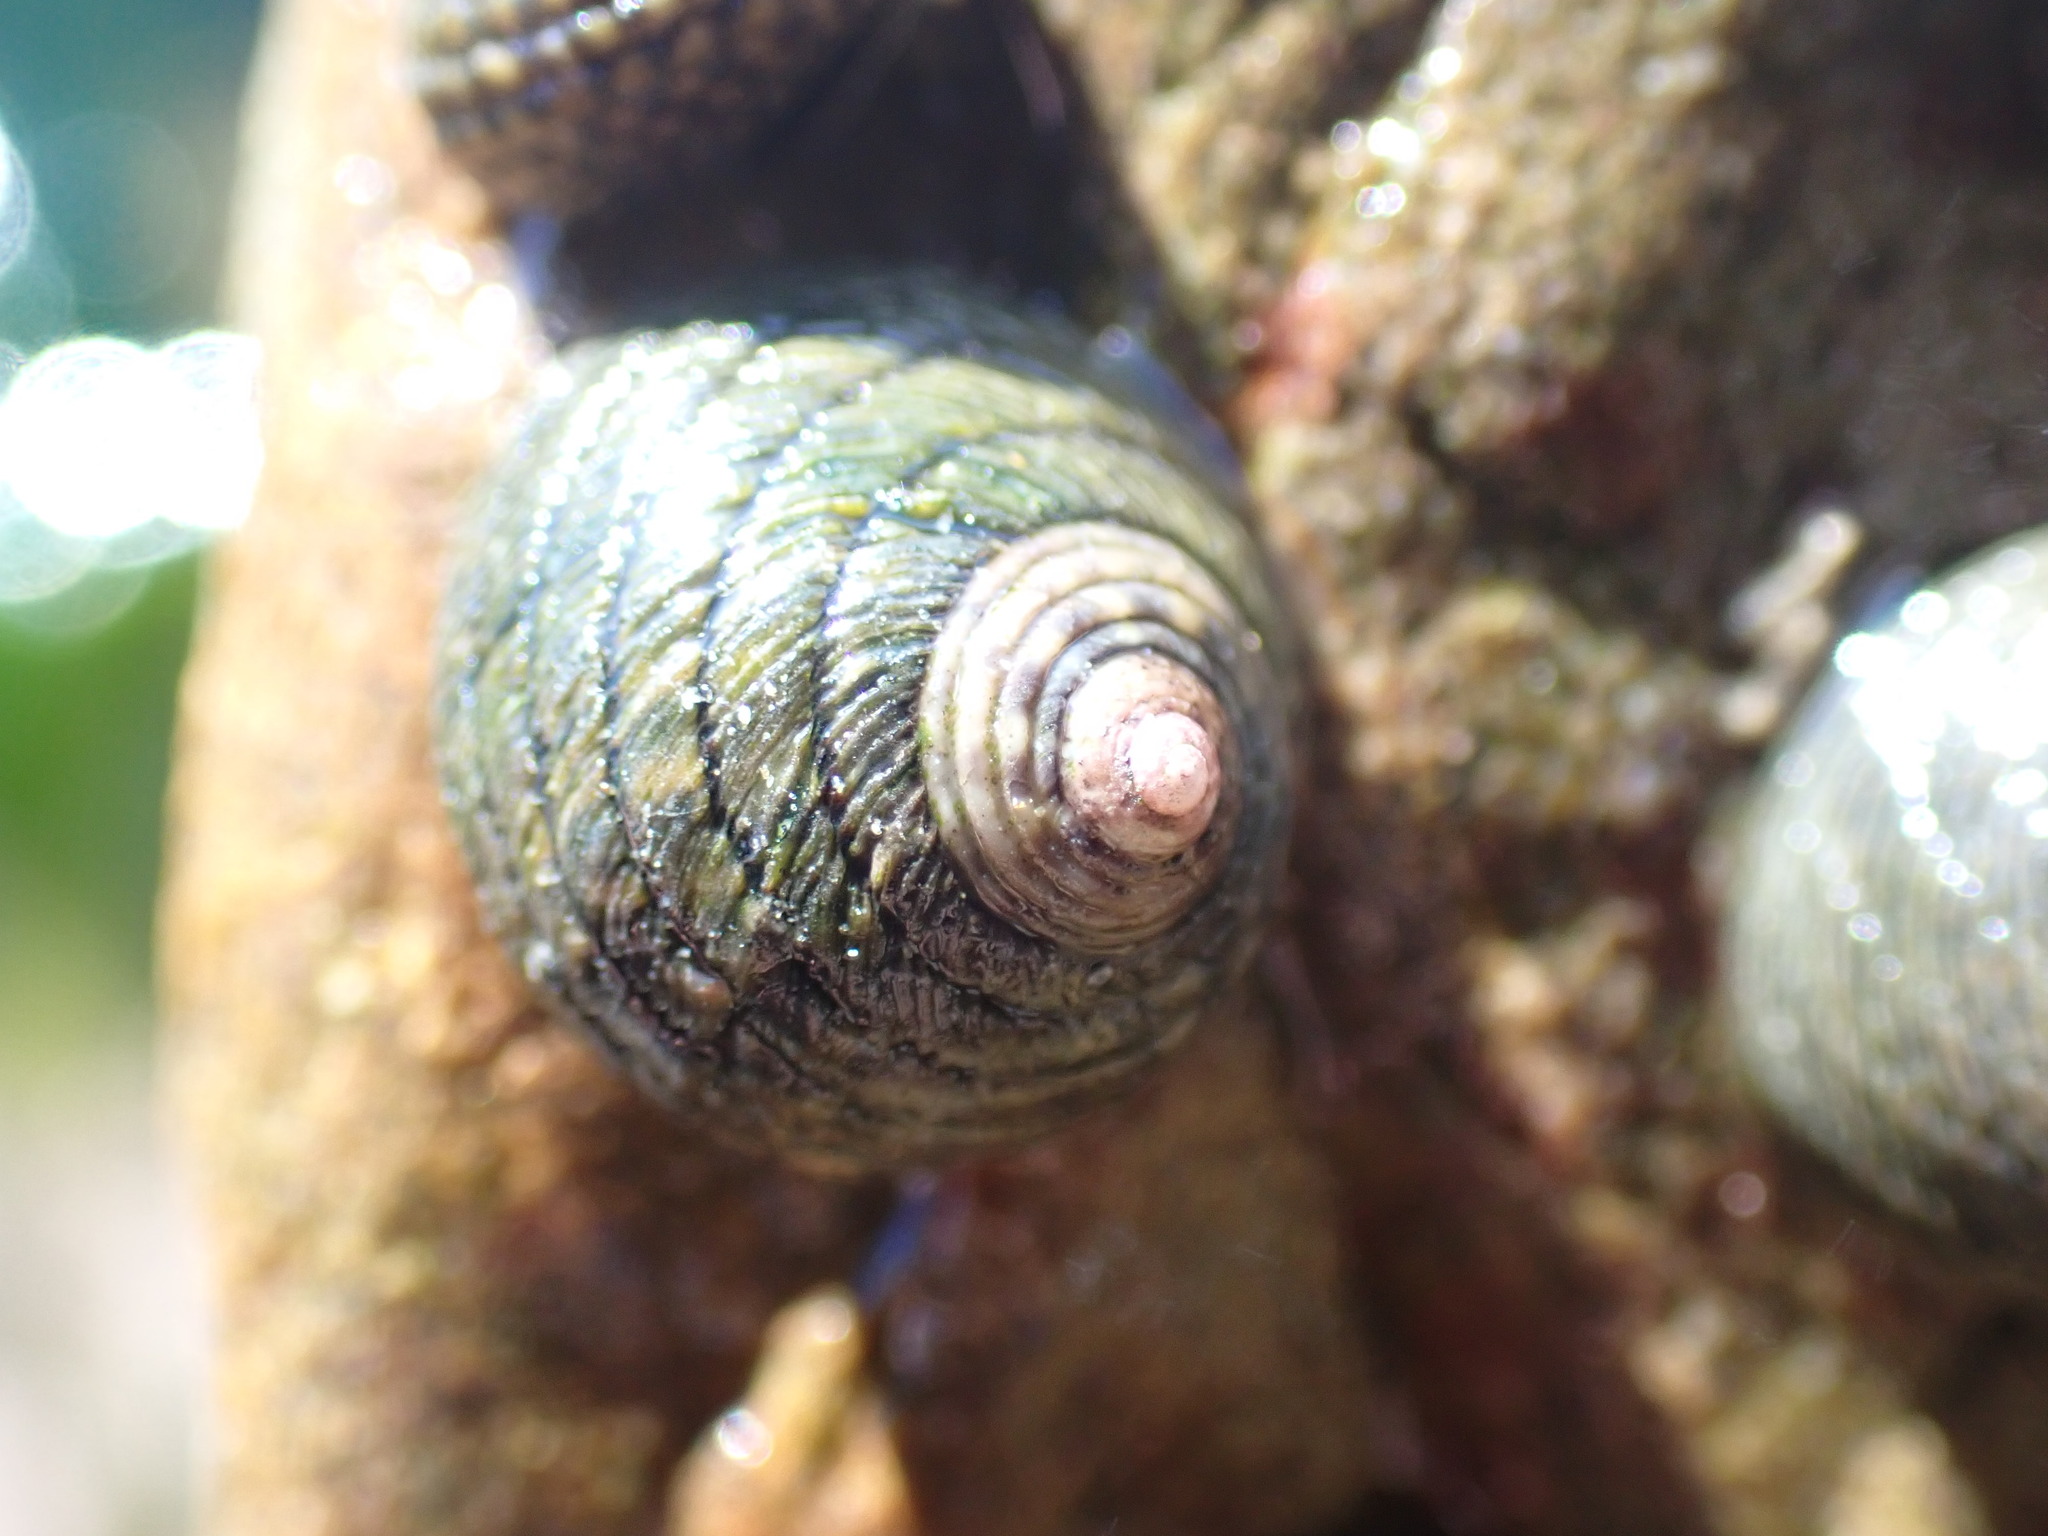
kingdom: Animalia
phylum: Mollusca
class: Gastropoda
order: Trochida
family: Trochidae
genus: Diloma
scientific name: Diloma aethiops
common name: Scorched monodont
